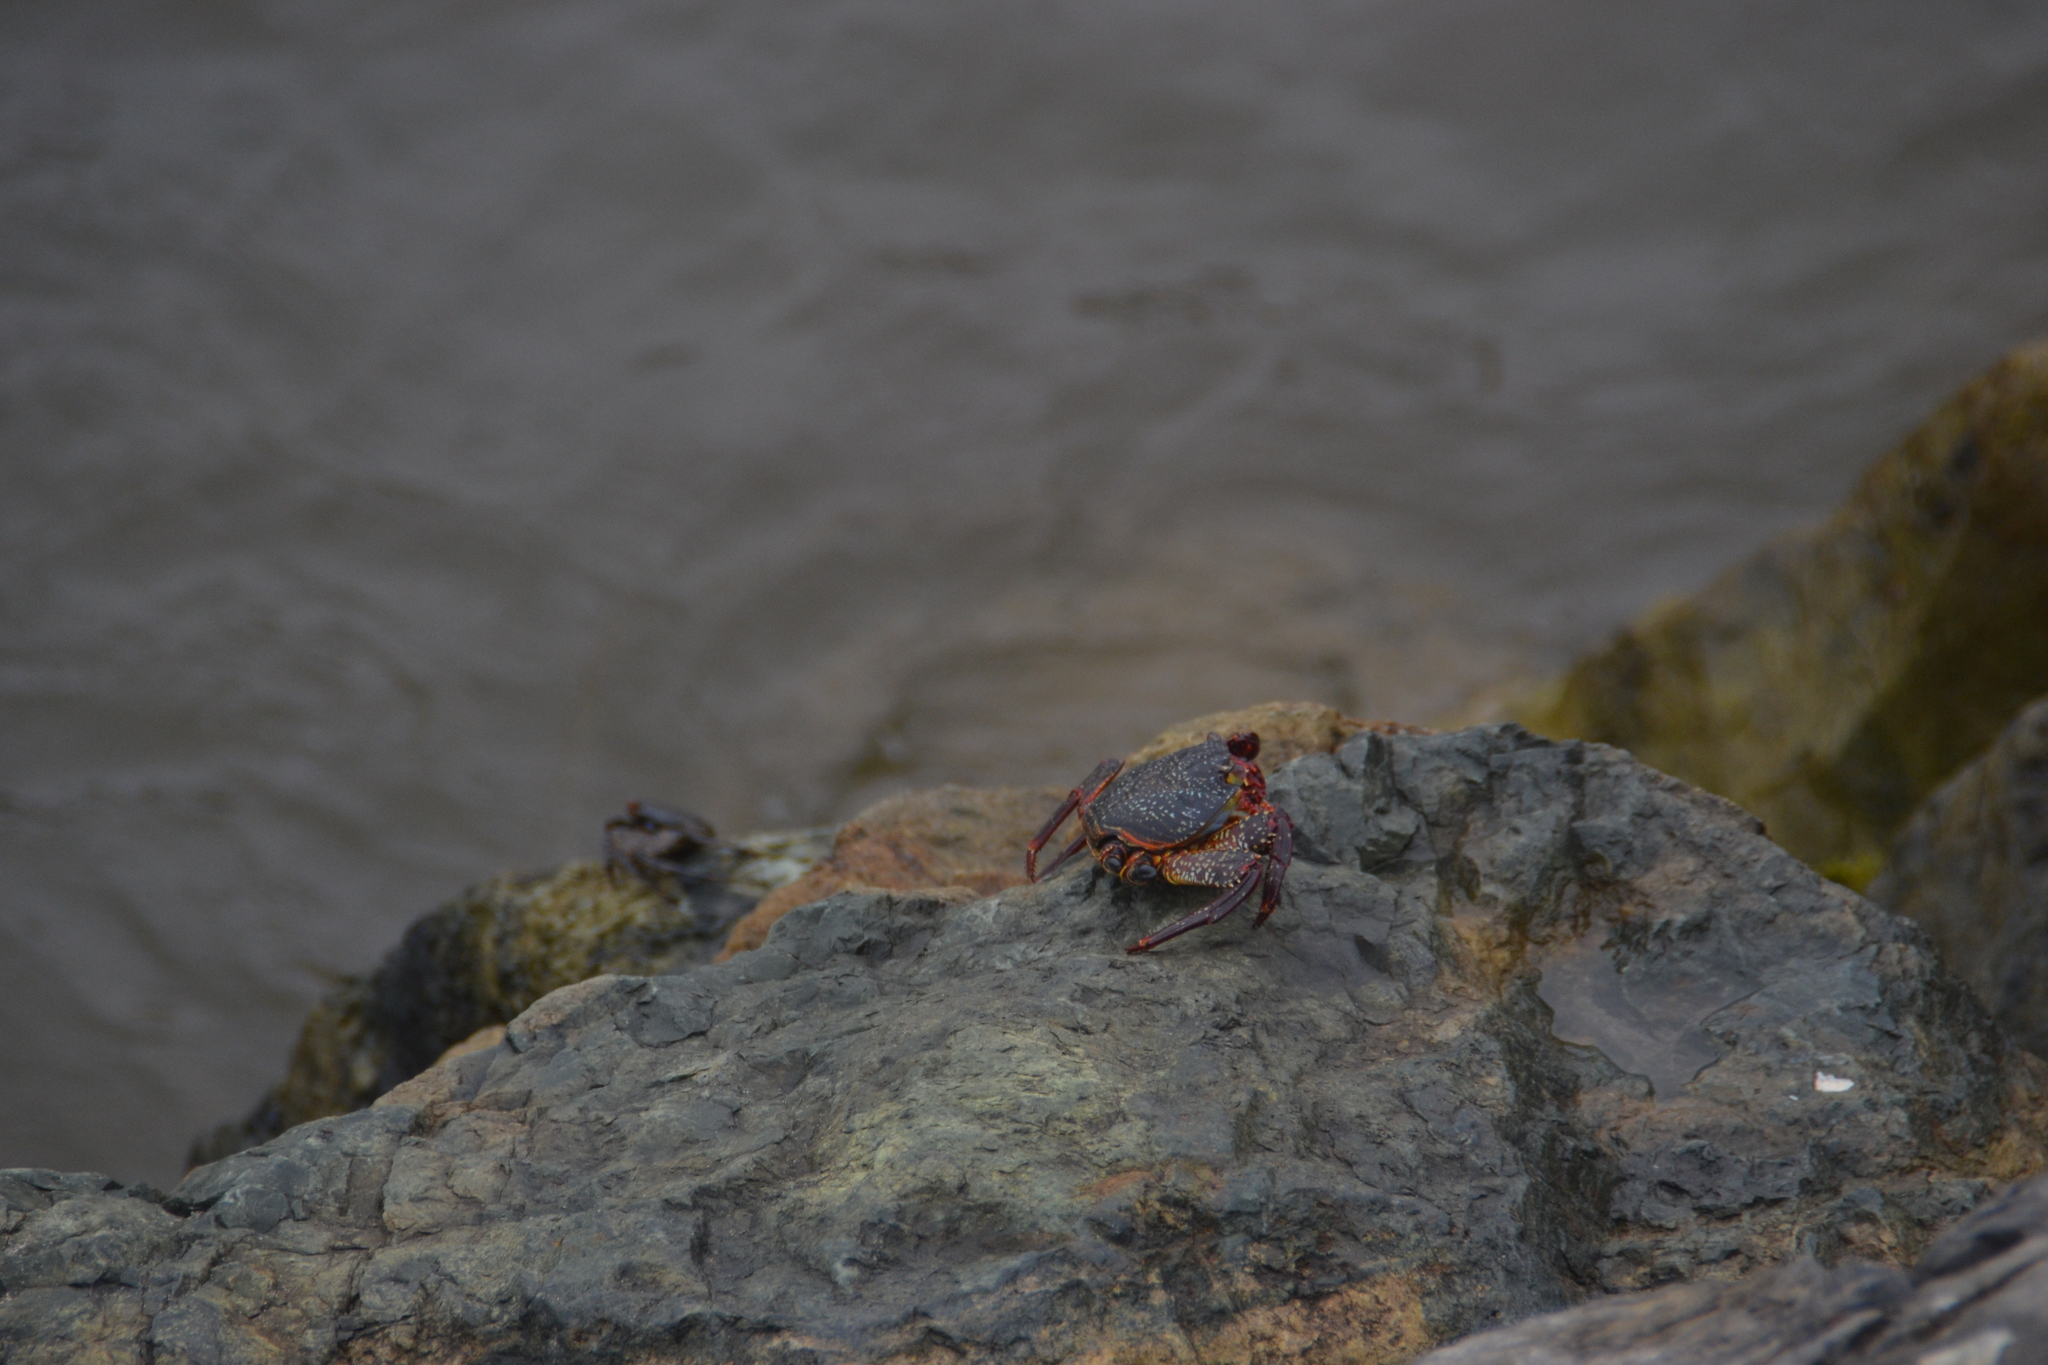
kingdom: Animalia
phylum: Arthropoda
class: Malacostraca
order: Decapoda
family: Grapsidae
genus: Grapsus
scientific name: Grapsus grapsus
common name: Sally lightfoot
